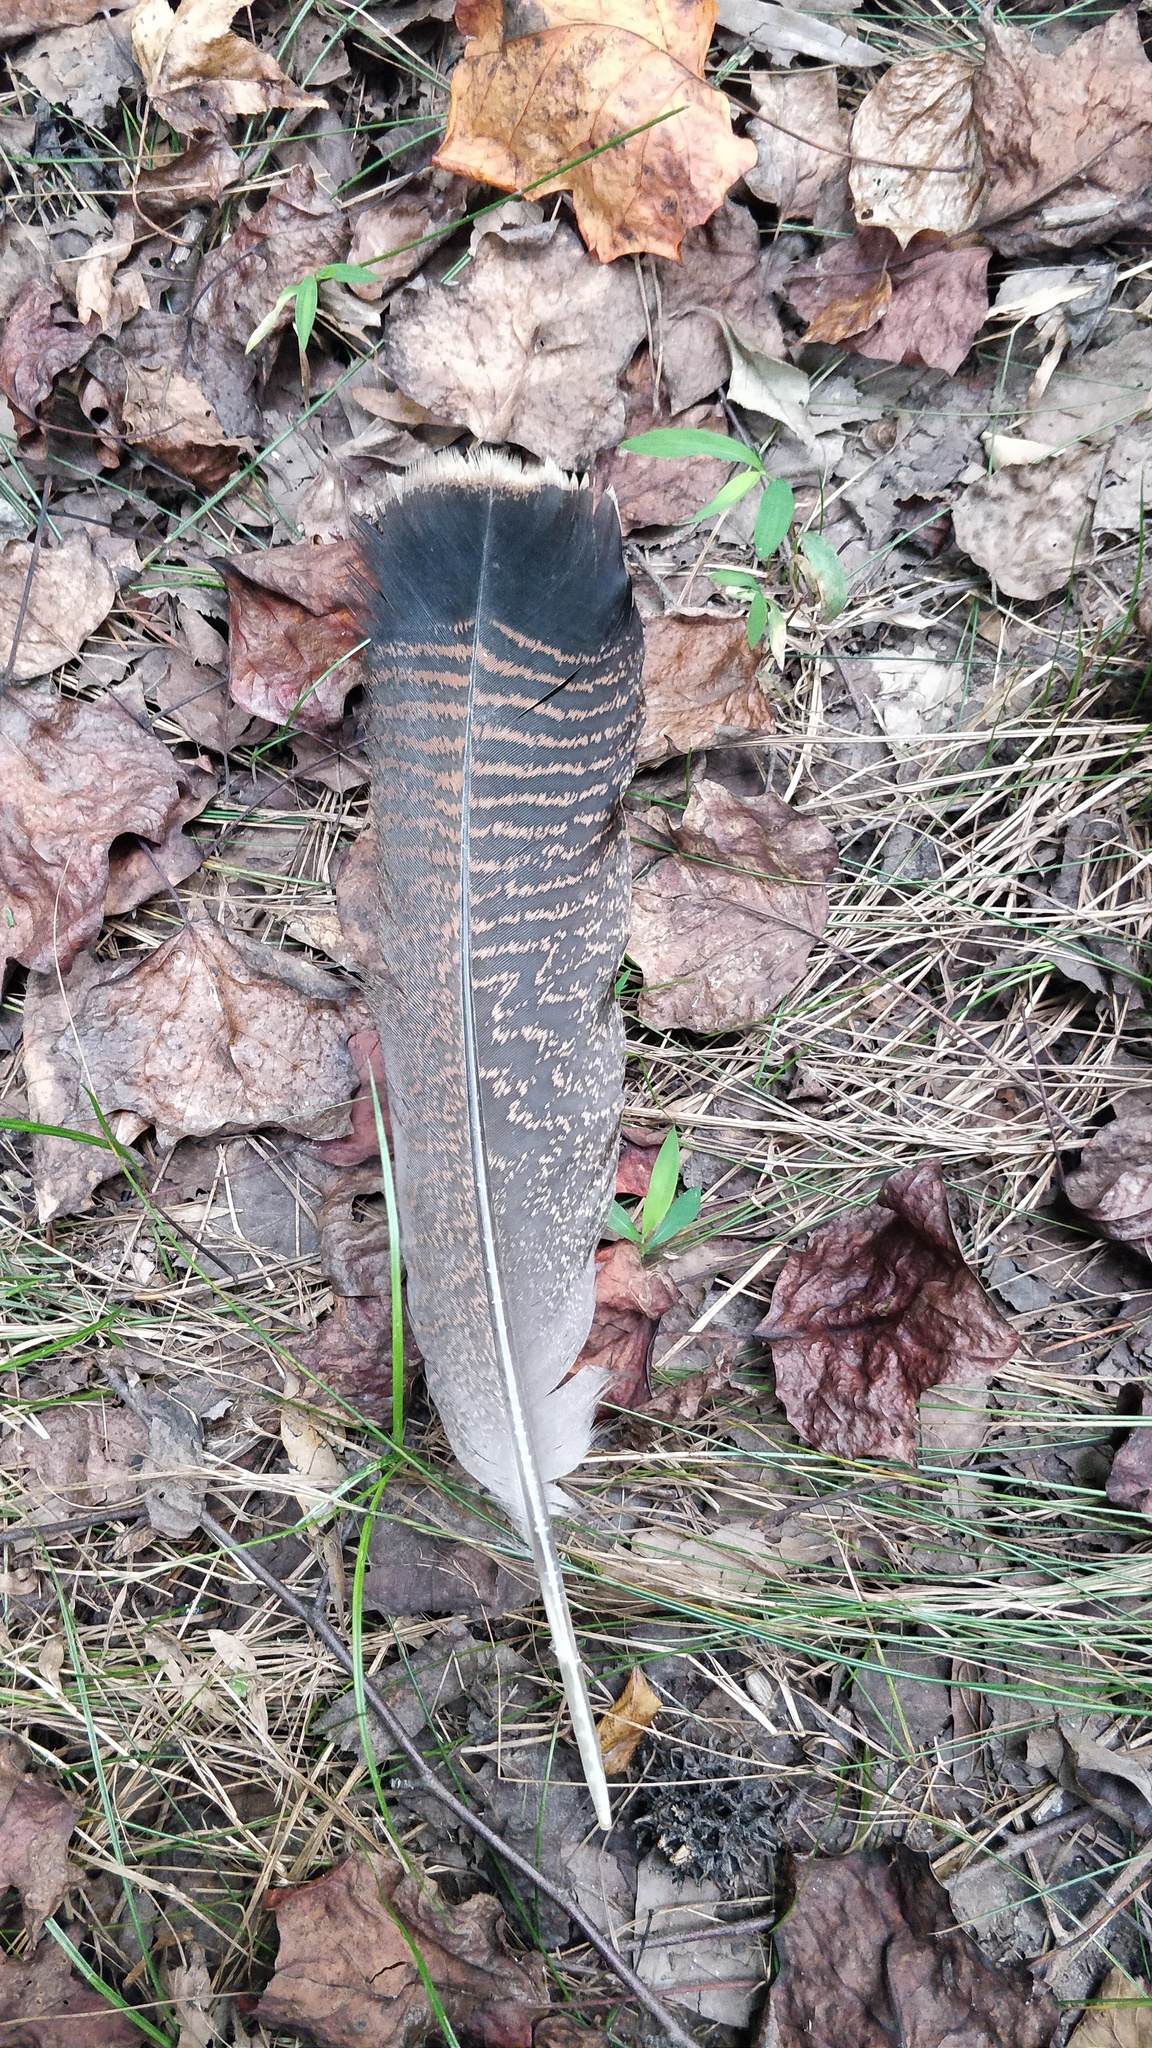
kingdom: Animalia
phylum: Chordata
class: Aves
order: Galliformes
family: Phasianidae
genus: Meleagris
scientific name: Meleagris gallopavo
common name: Wild turkey
